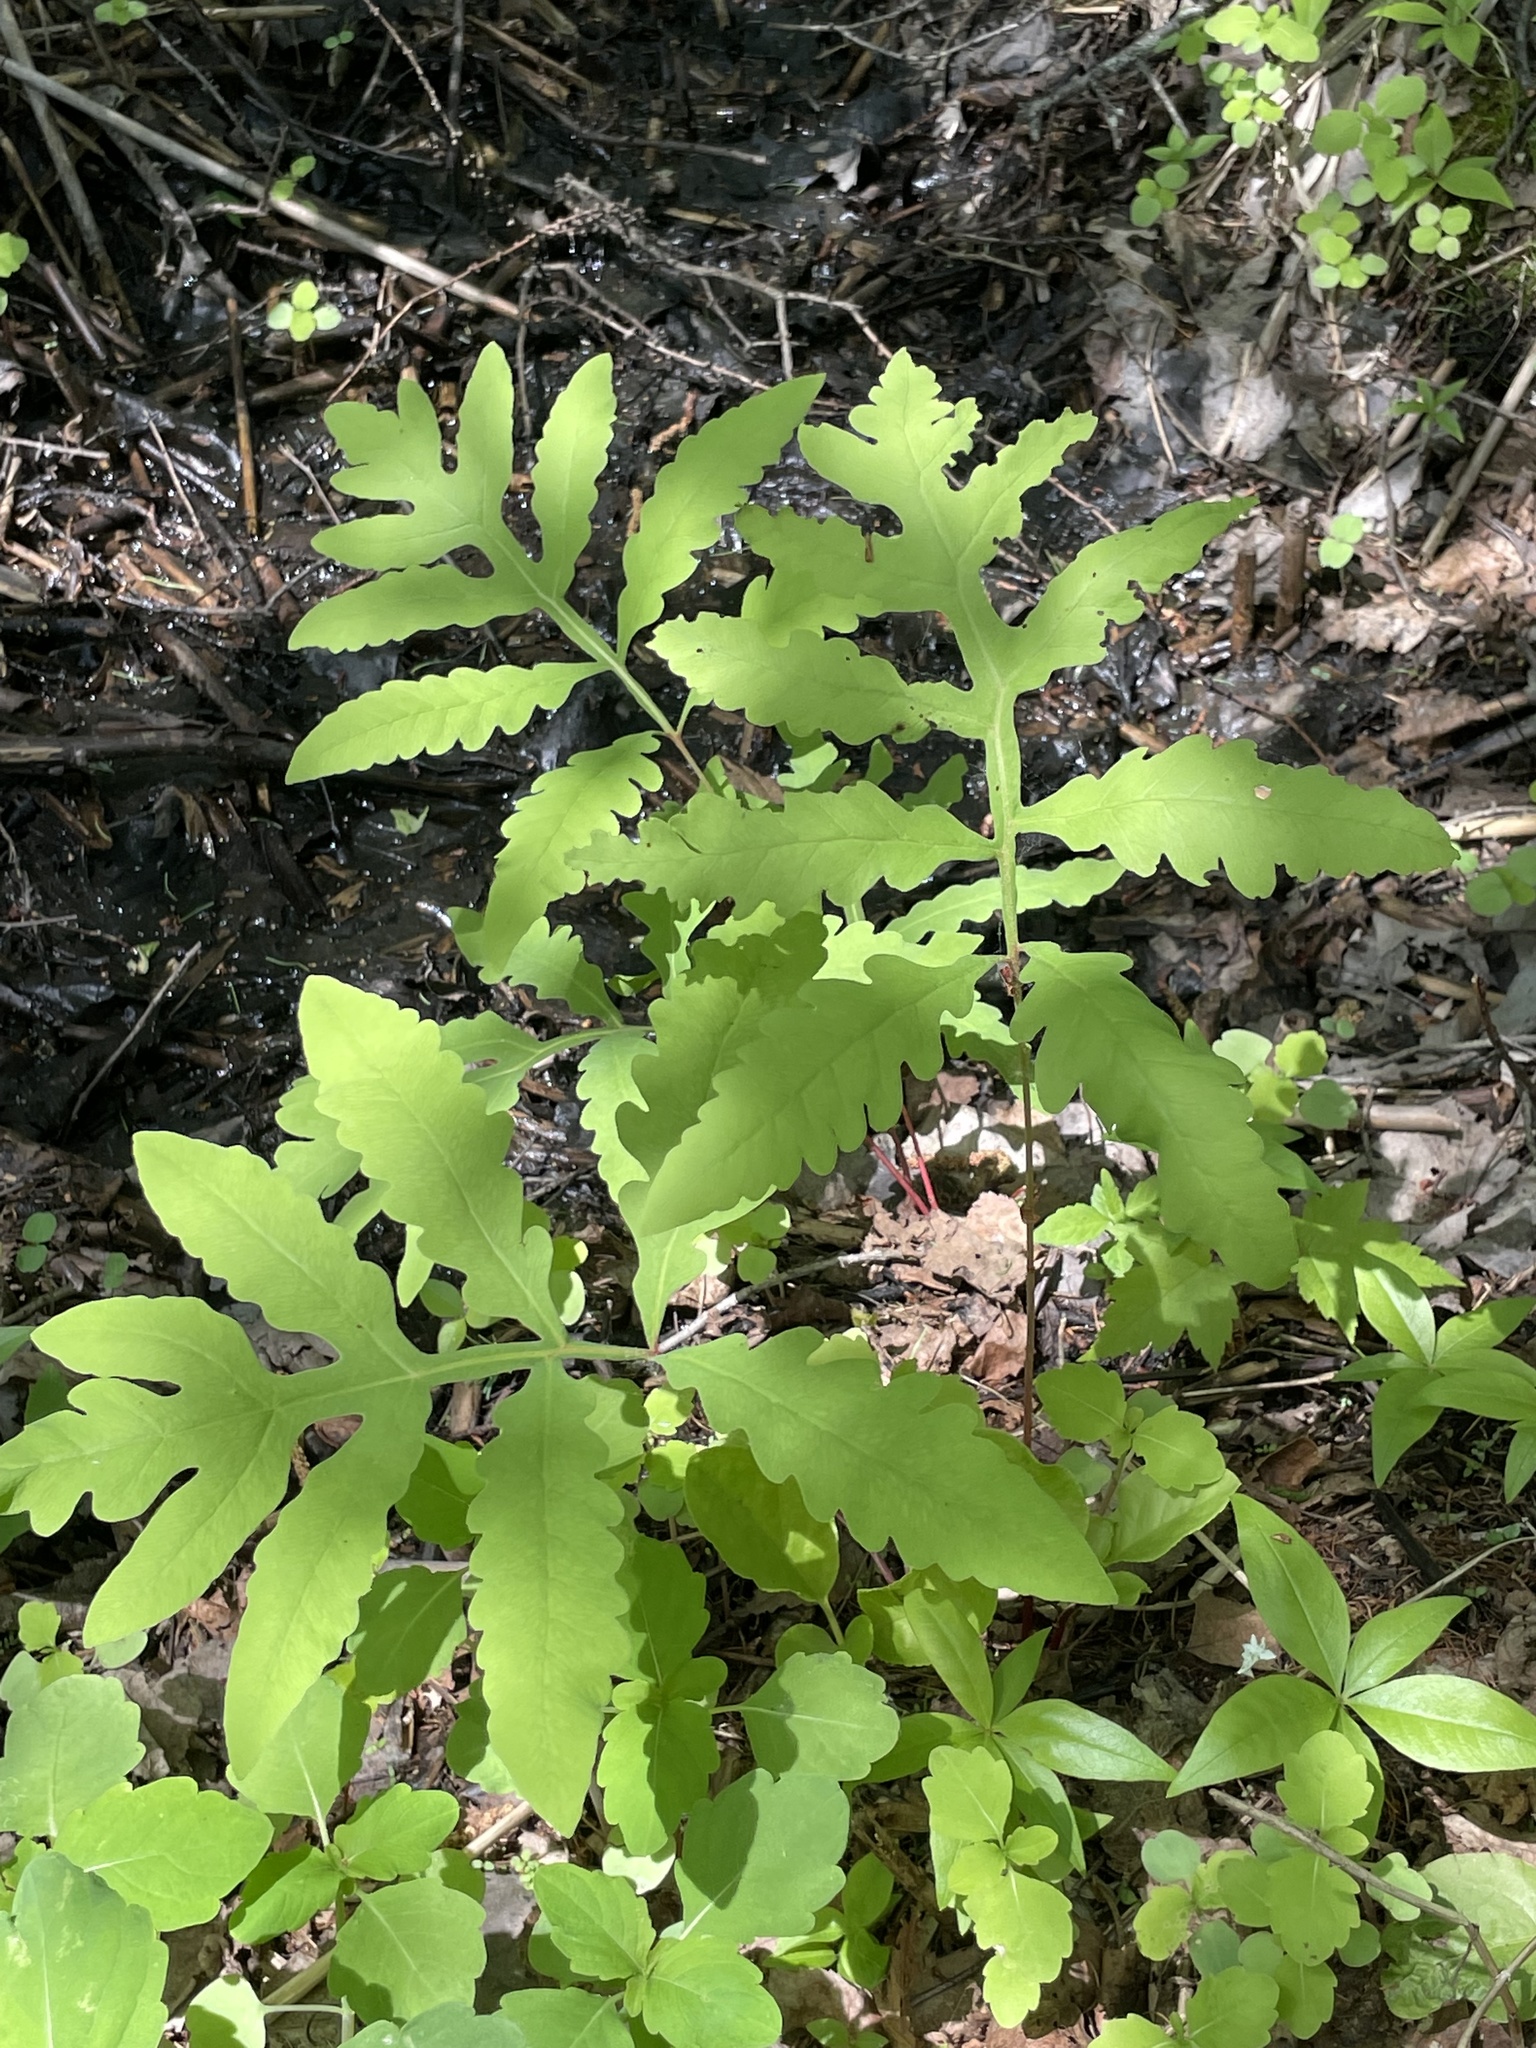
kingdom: Plantae
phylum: Tracheophyta
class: Polypodiopsida
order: Polypodiales
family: Onocleaceae
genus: Onoclea
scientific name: Onoclea sensibilis
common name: Sensitive fern
